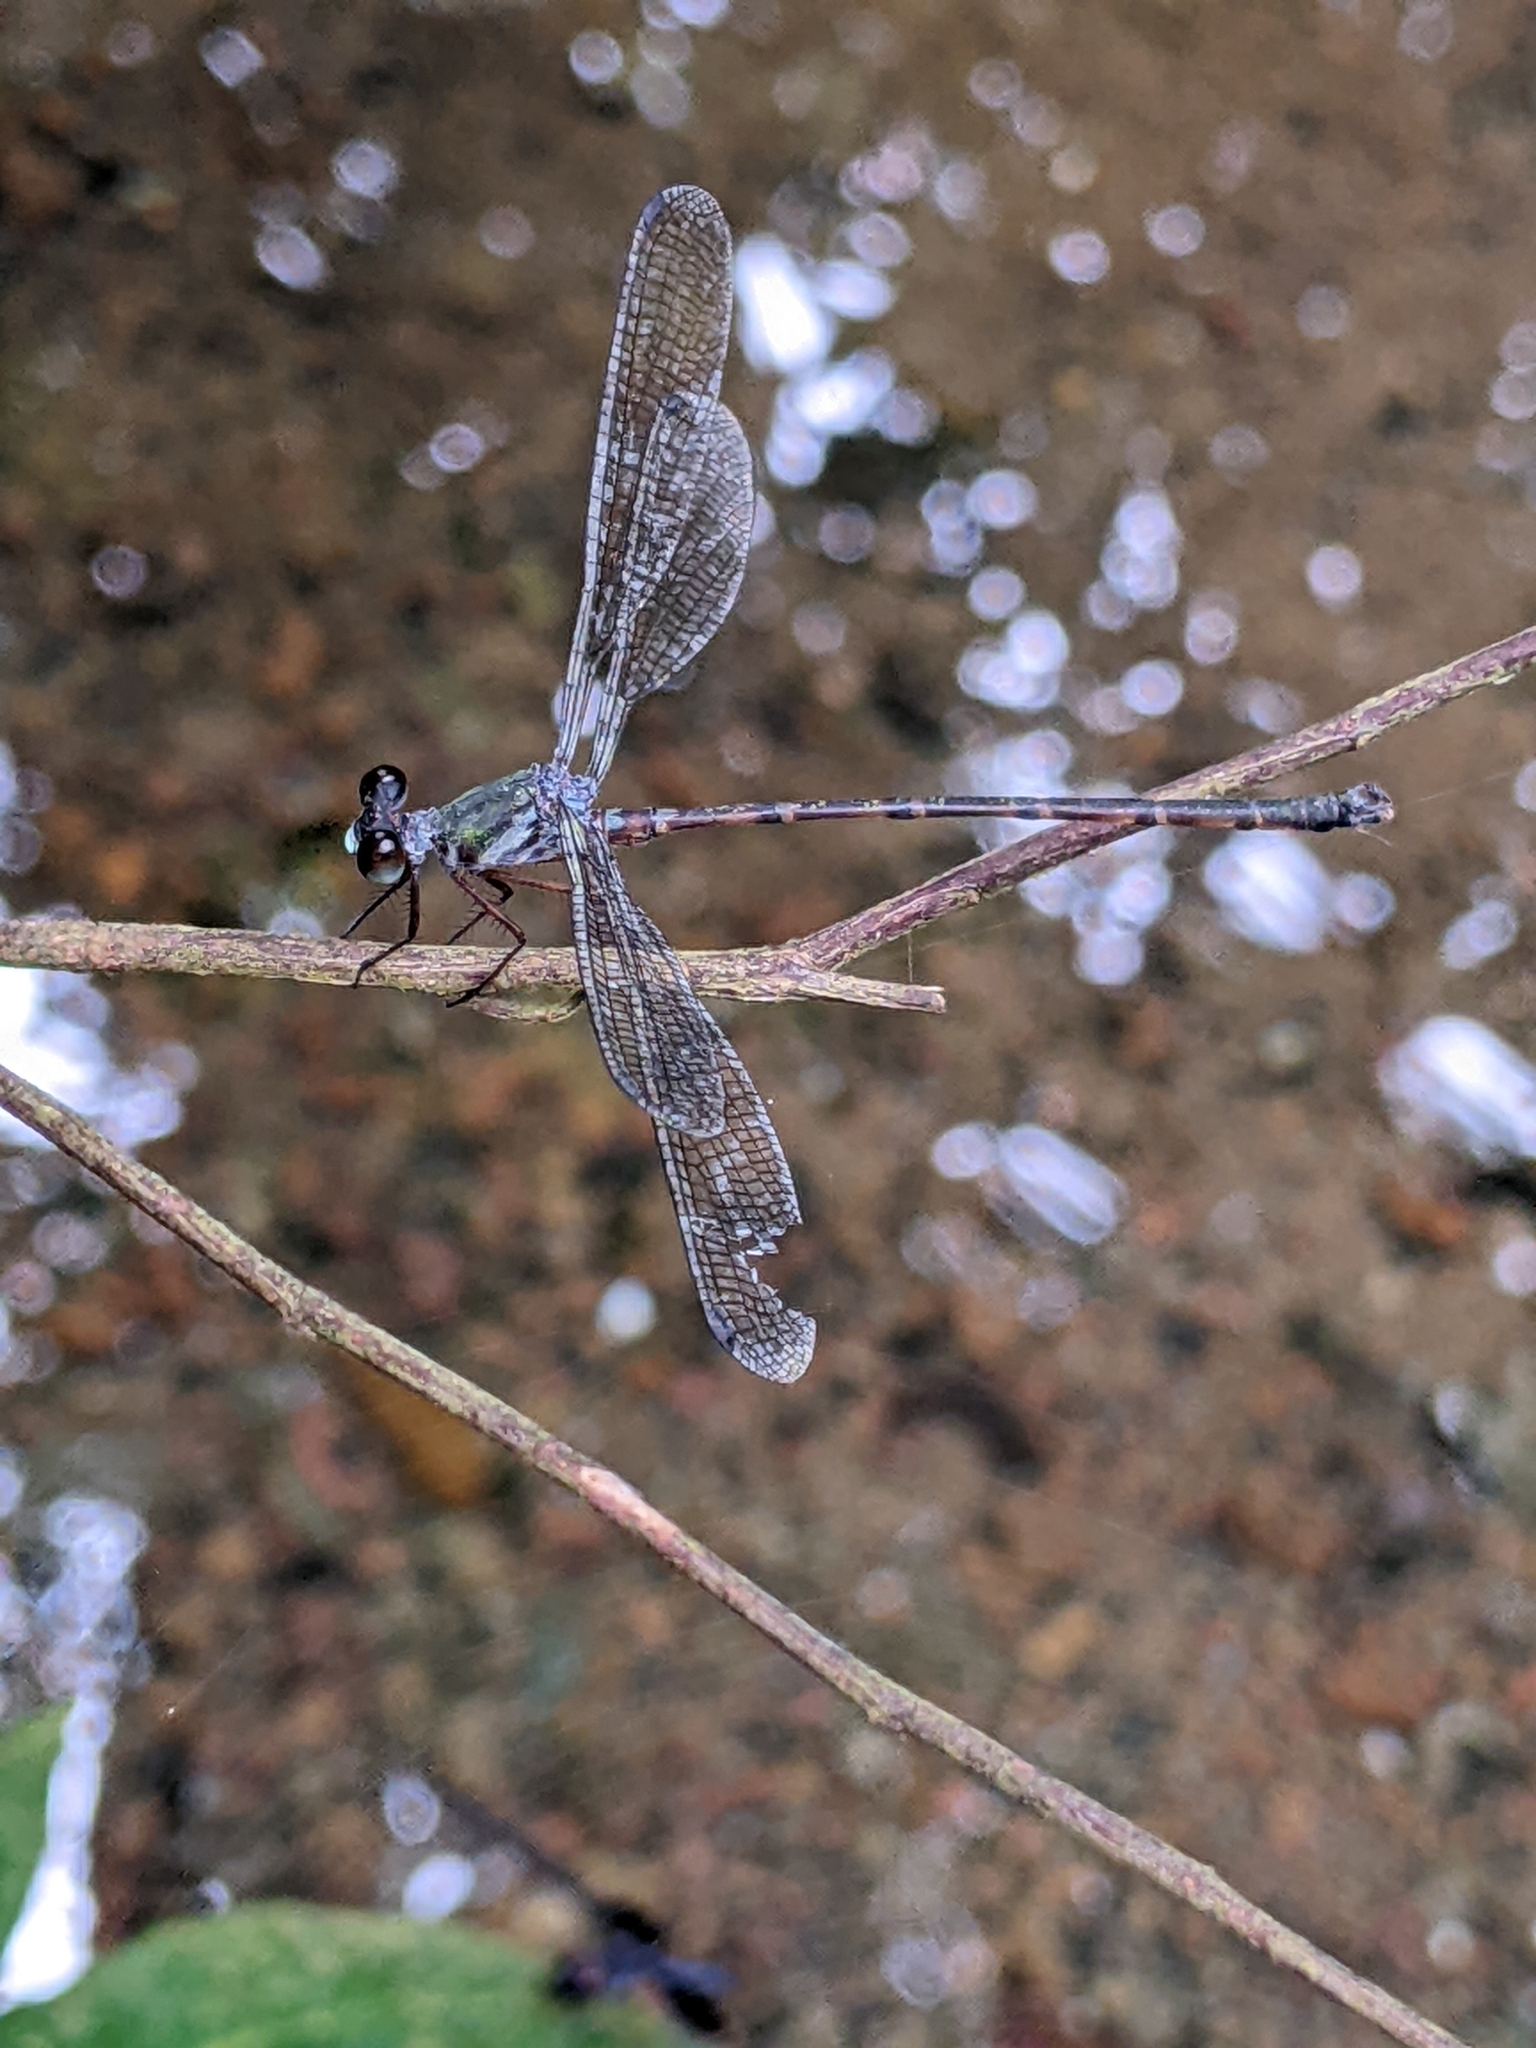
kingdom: Animalia
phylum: Arthropoda
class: Insecta
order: Odonata
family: Argiolestidae
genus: Podolestes
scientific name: Podolestes orientalis
